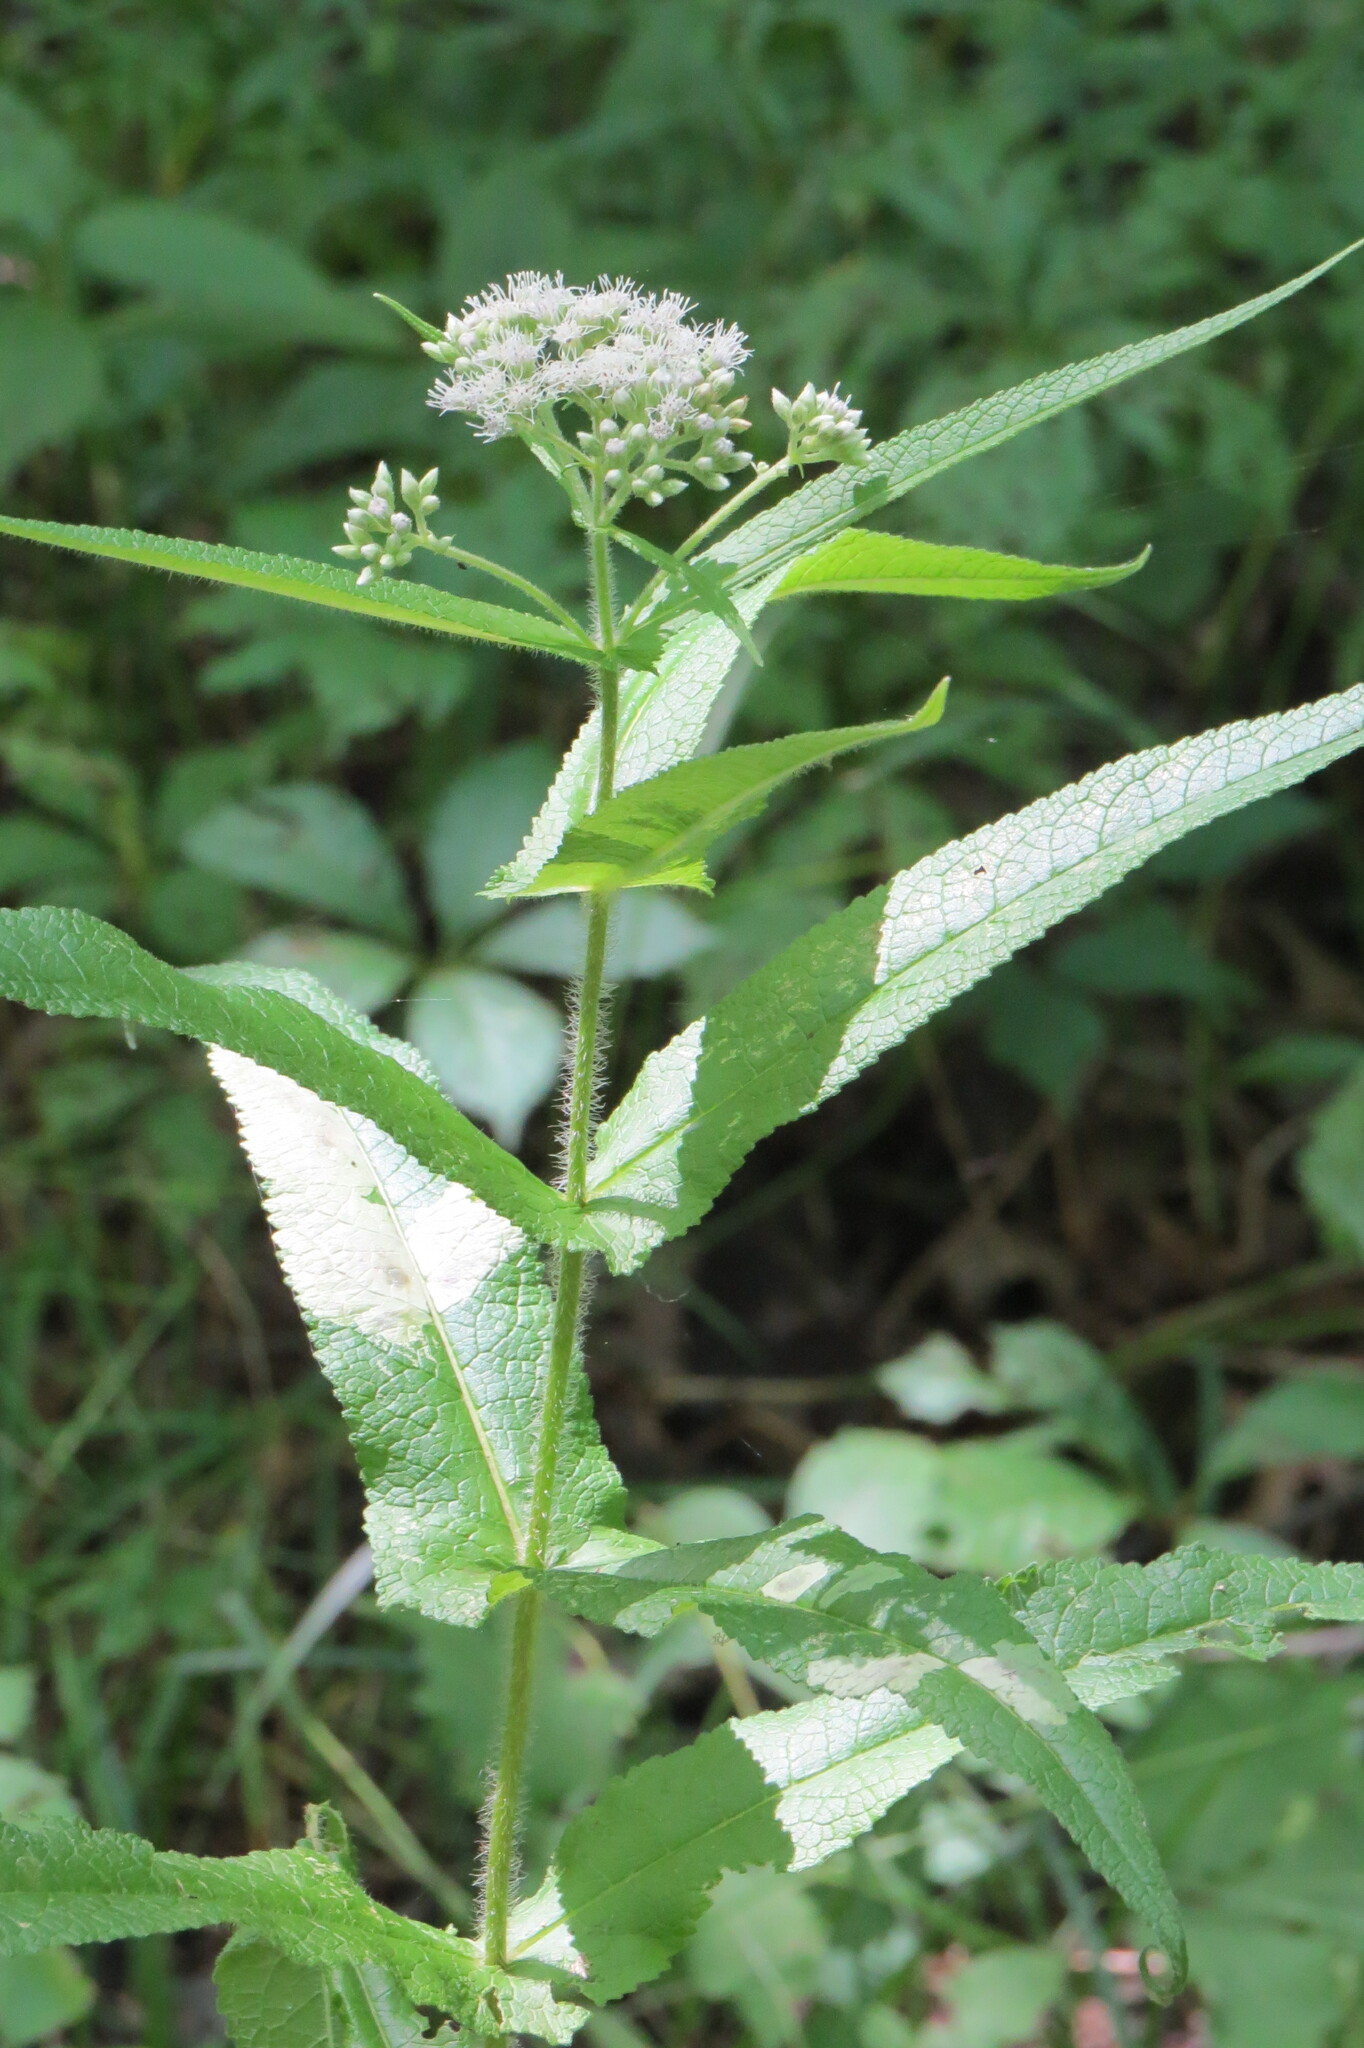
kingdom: Plantae
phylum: Tracheophyta
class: Magnoliopsida
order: Asterales
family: Asteraceae
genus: Eupatorium
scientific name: Eupatorium perfoliatum
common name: Boneset
